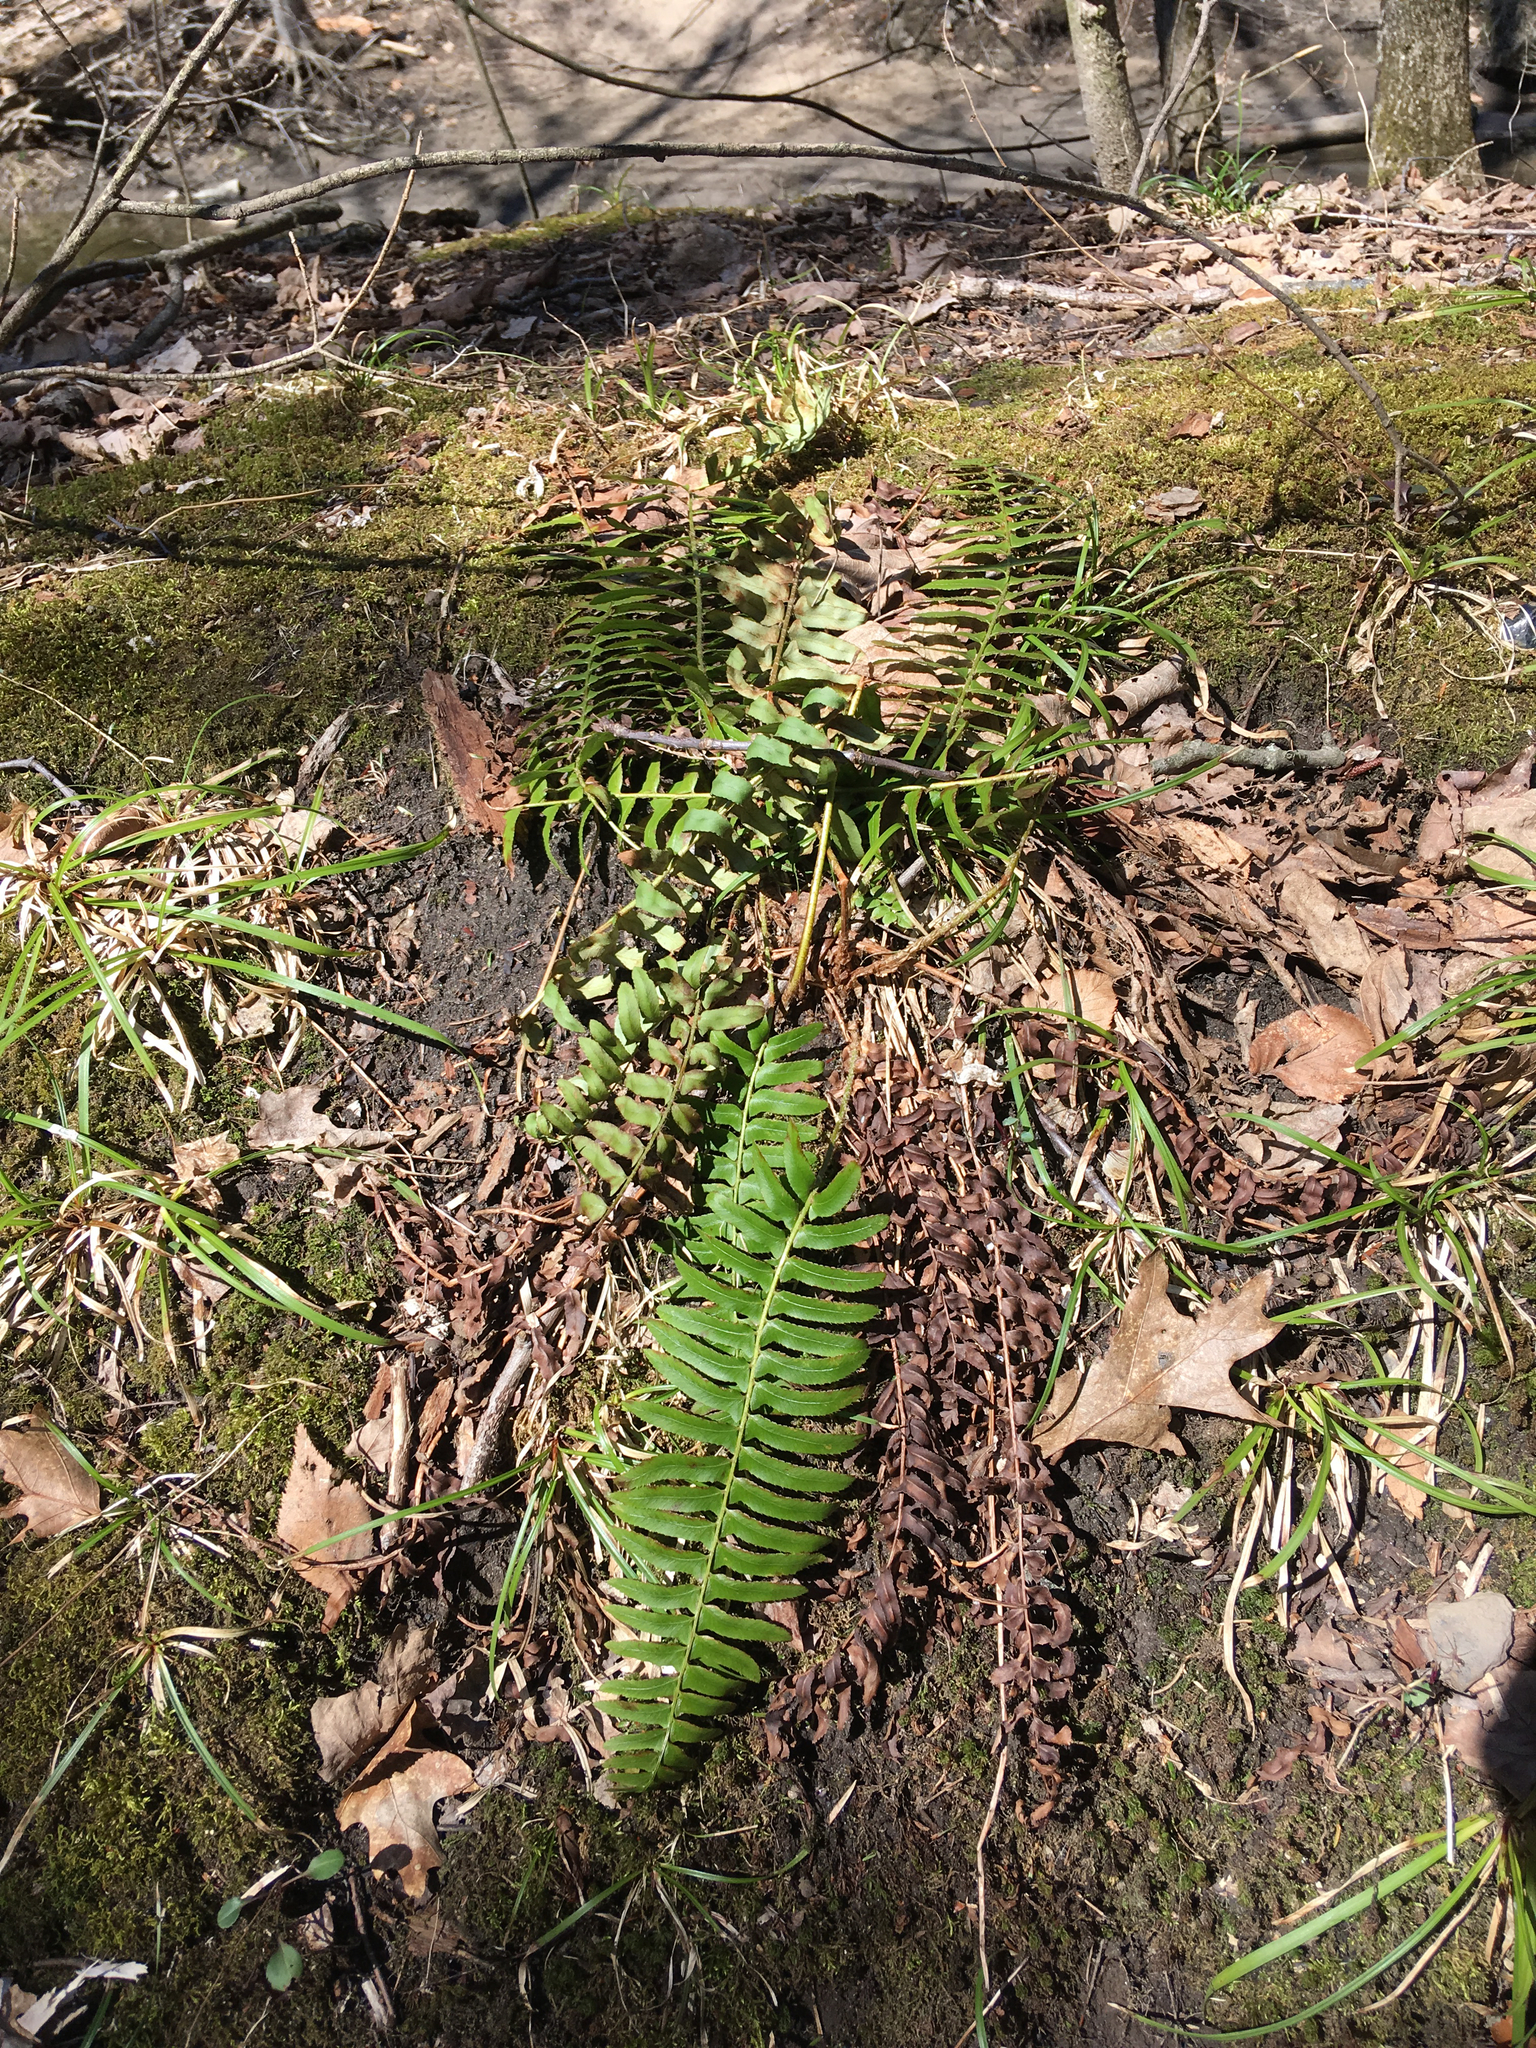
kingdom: Plantae
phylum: Tracheophyta
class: Polypodiopsida
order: Polypodiales
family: Dryopteridaceae
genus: Polystichum
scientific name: Polystichum acrostichoides
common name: Christmas fern
